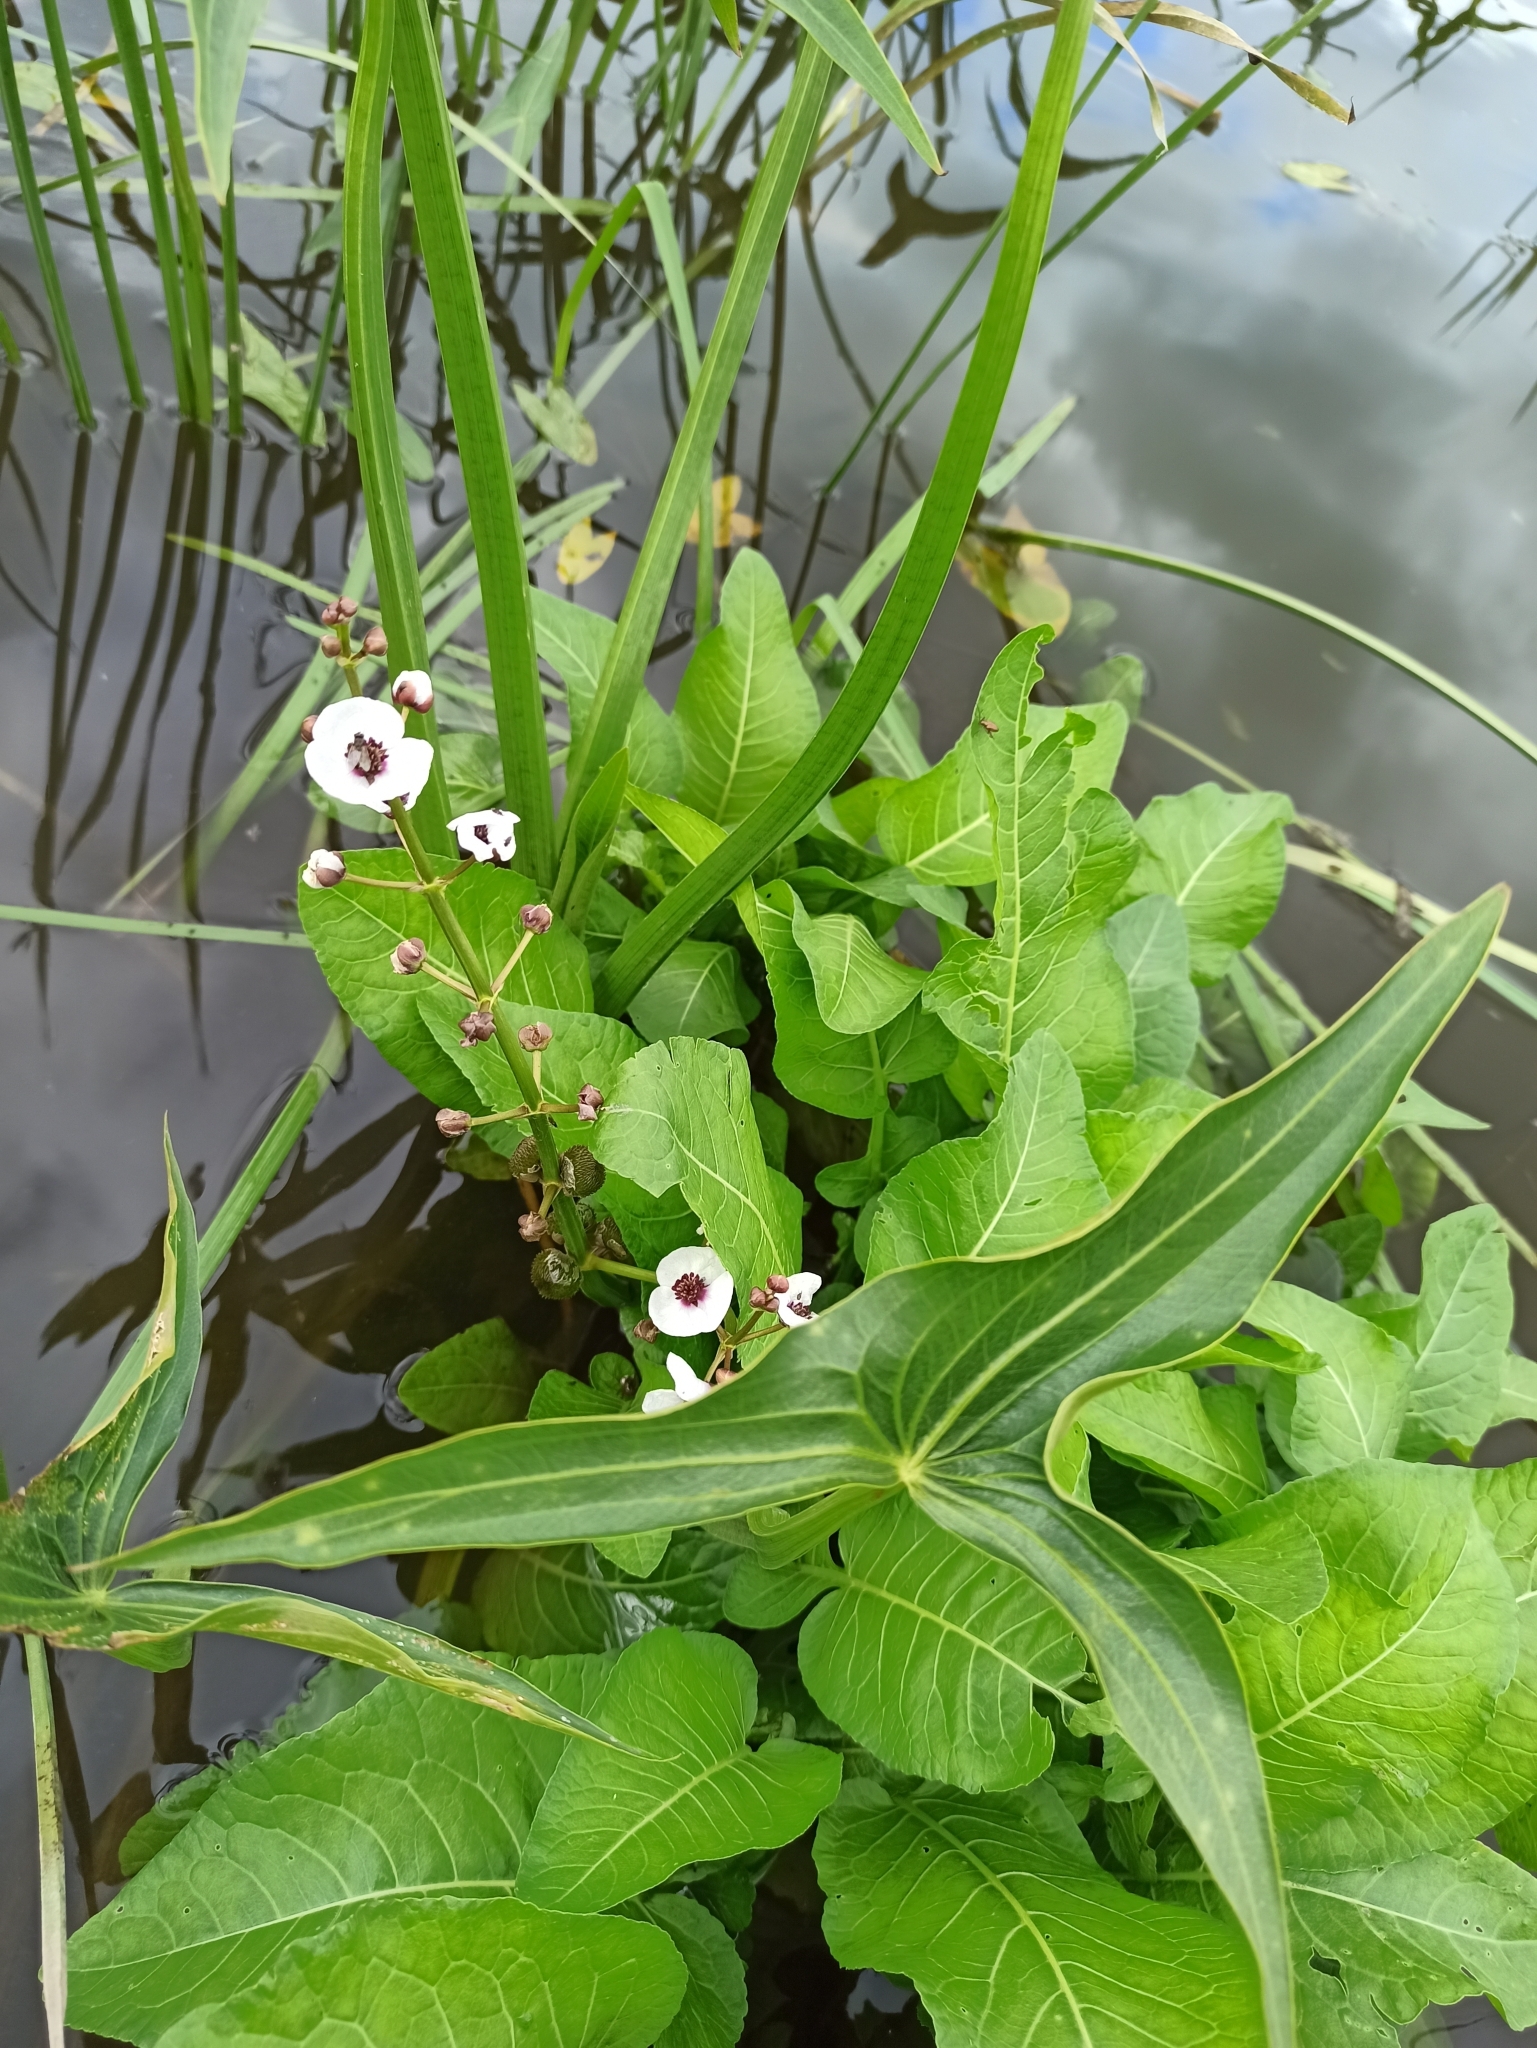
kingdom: Plantae
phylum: Tracheophyta
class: Liliopsida
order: Alismatales
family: Alismataceae
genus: Sagittaria
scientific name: Sagittaria sagittifolia
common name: Arrowhead
